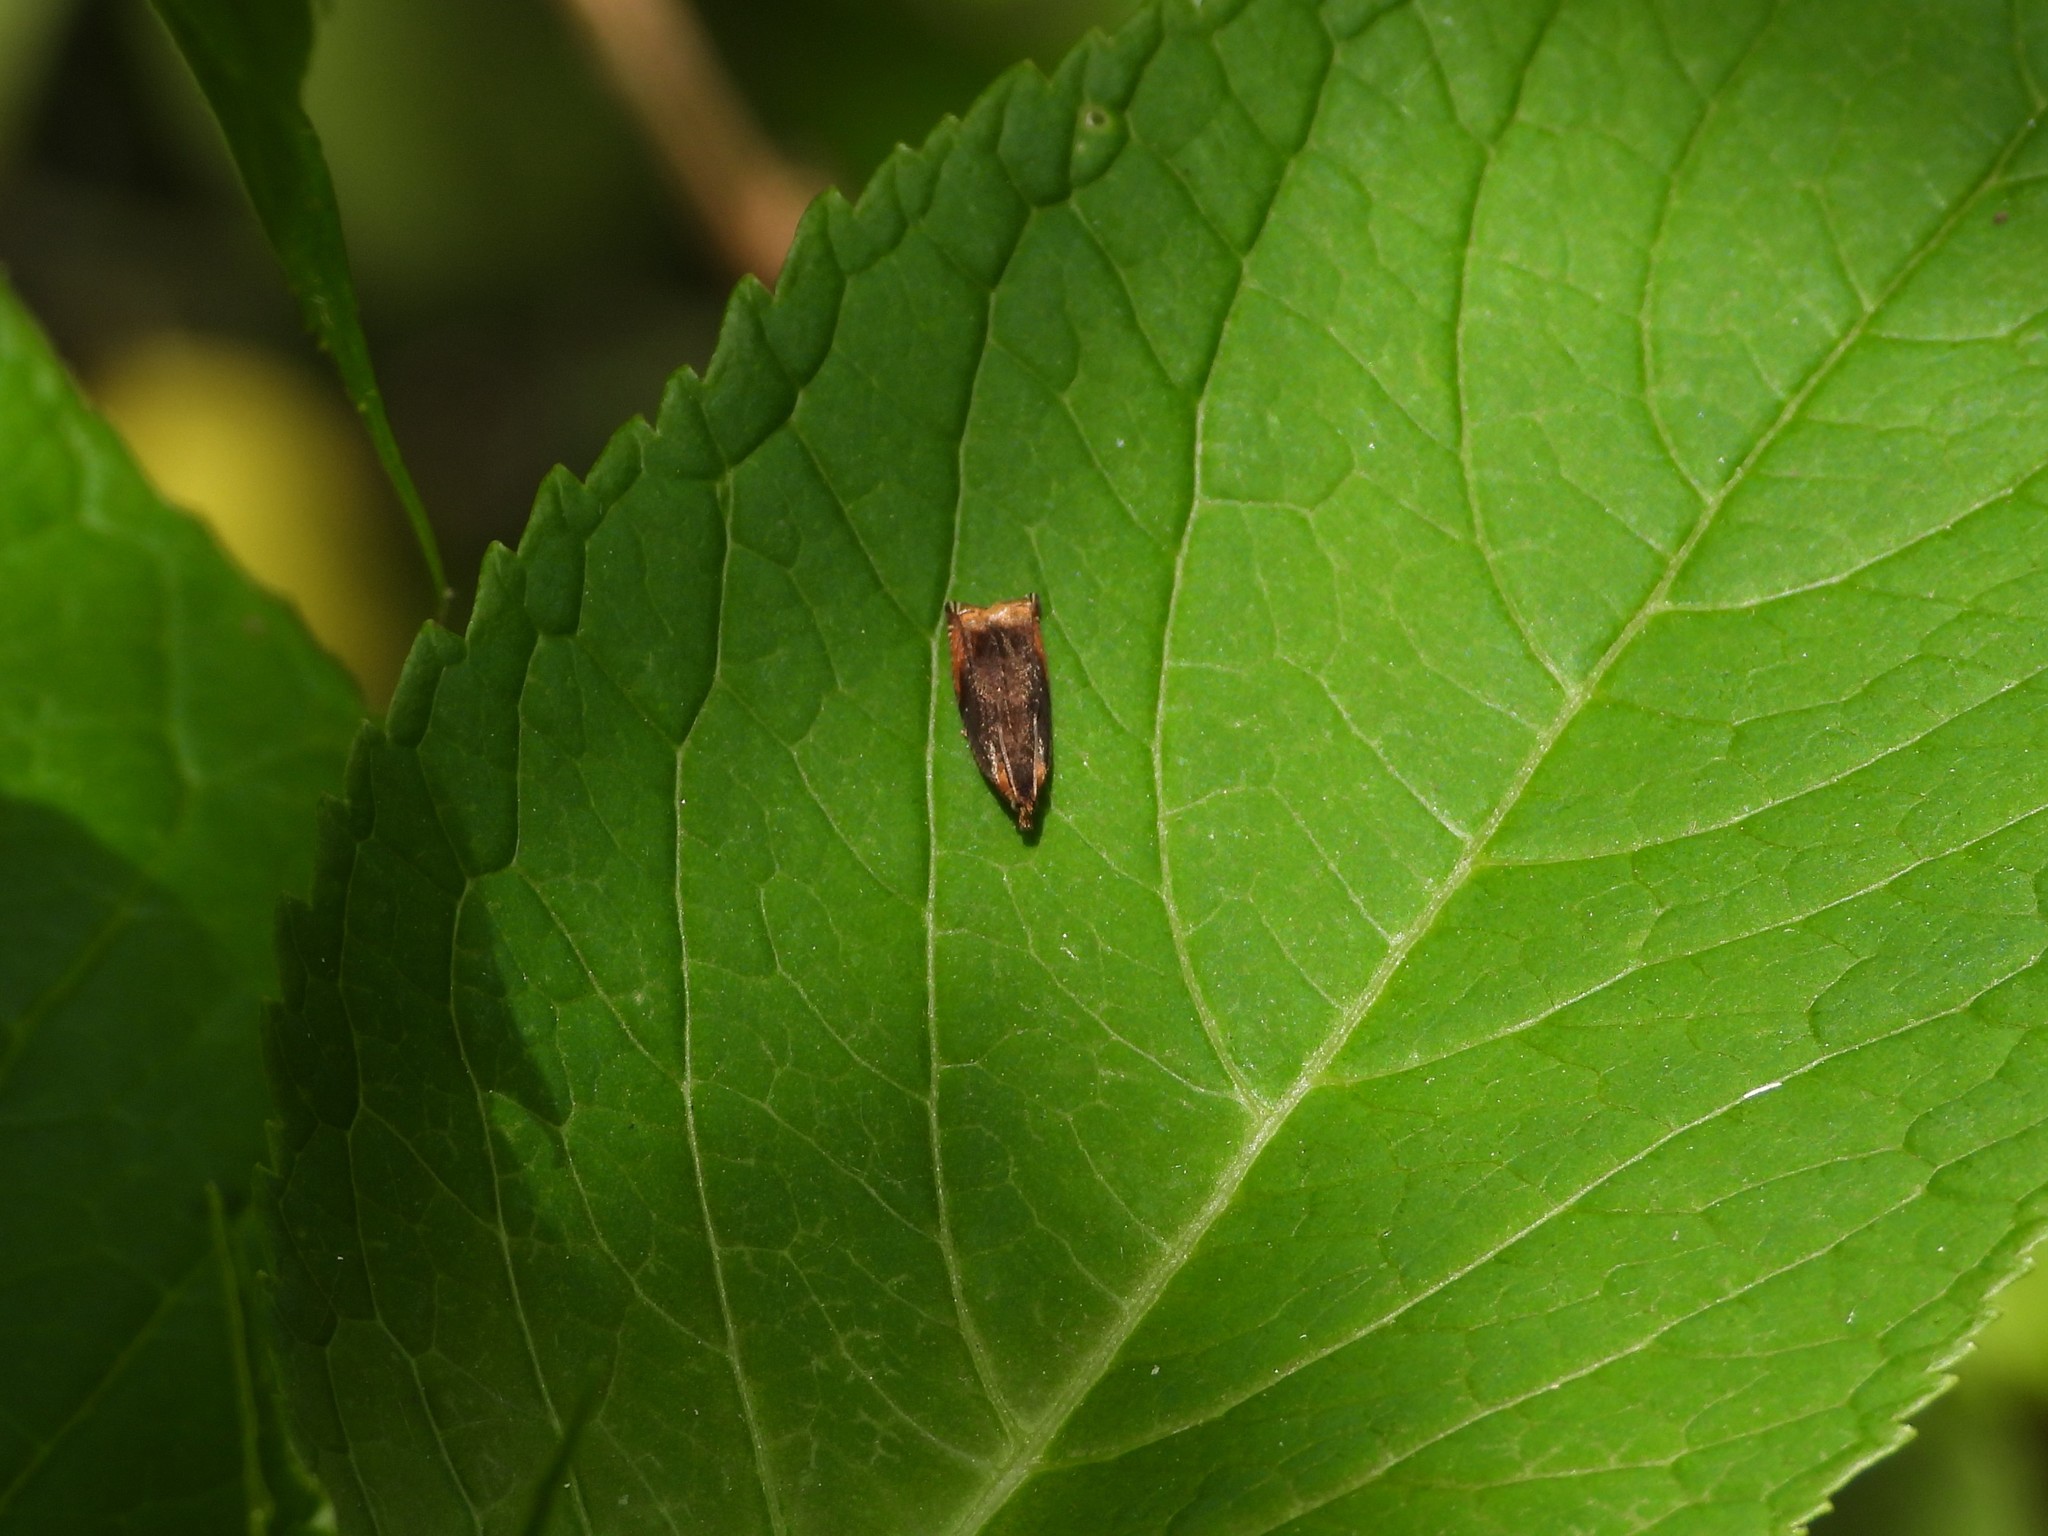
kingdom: Animalia
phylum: Arthropoda
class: Insecta
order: Lepidoptera
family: Tortricidae
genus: Ancylis
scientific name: Ancylis upupana
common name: Dark roller
